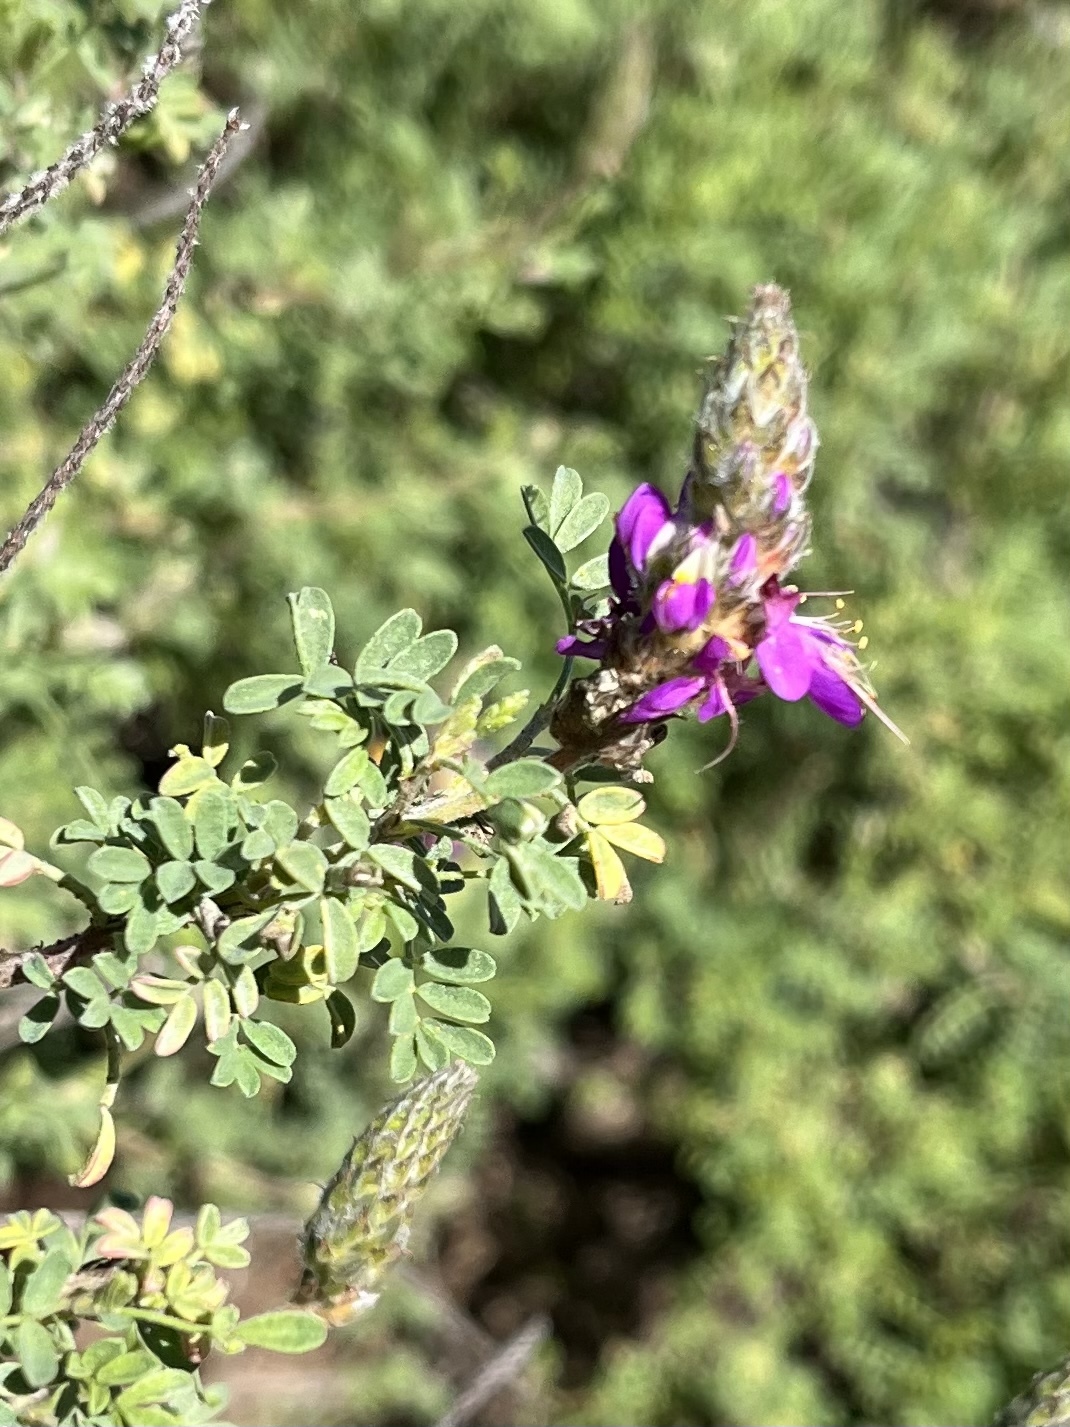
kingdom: Plantae
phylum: Tracheophyta
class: Magnoliopsida
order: Fabales
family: Fabaceae
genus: Dalea
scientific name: Dalea bicolor
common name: Silver prairie-clover
